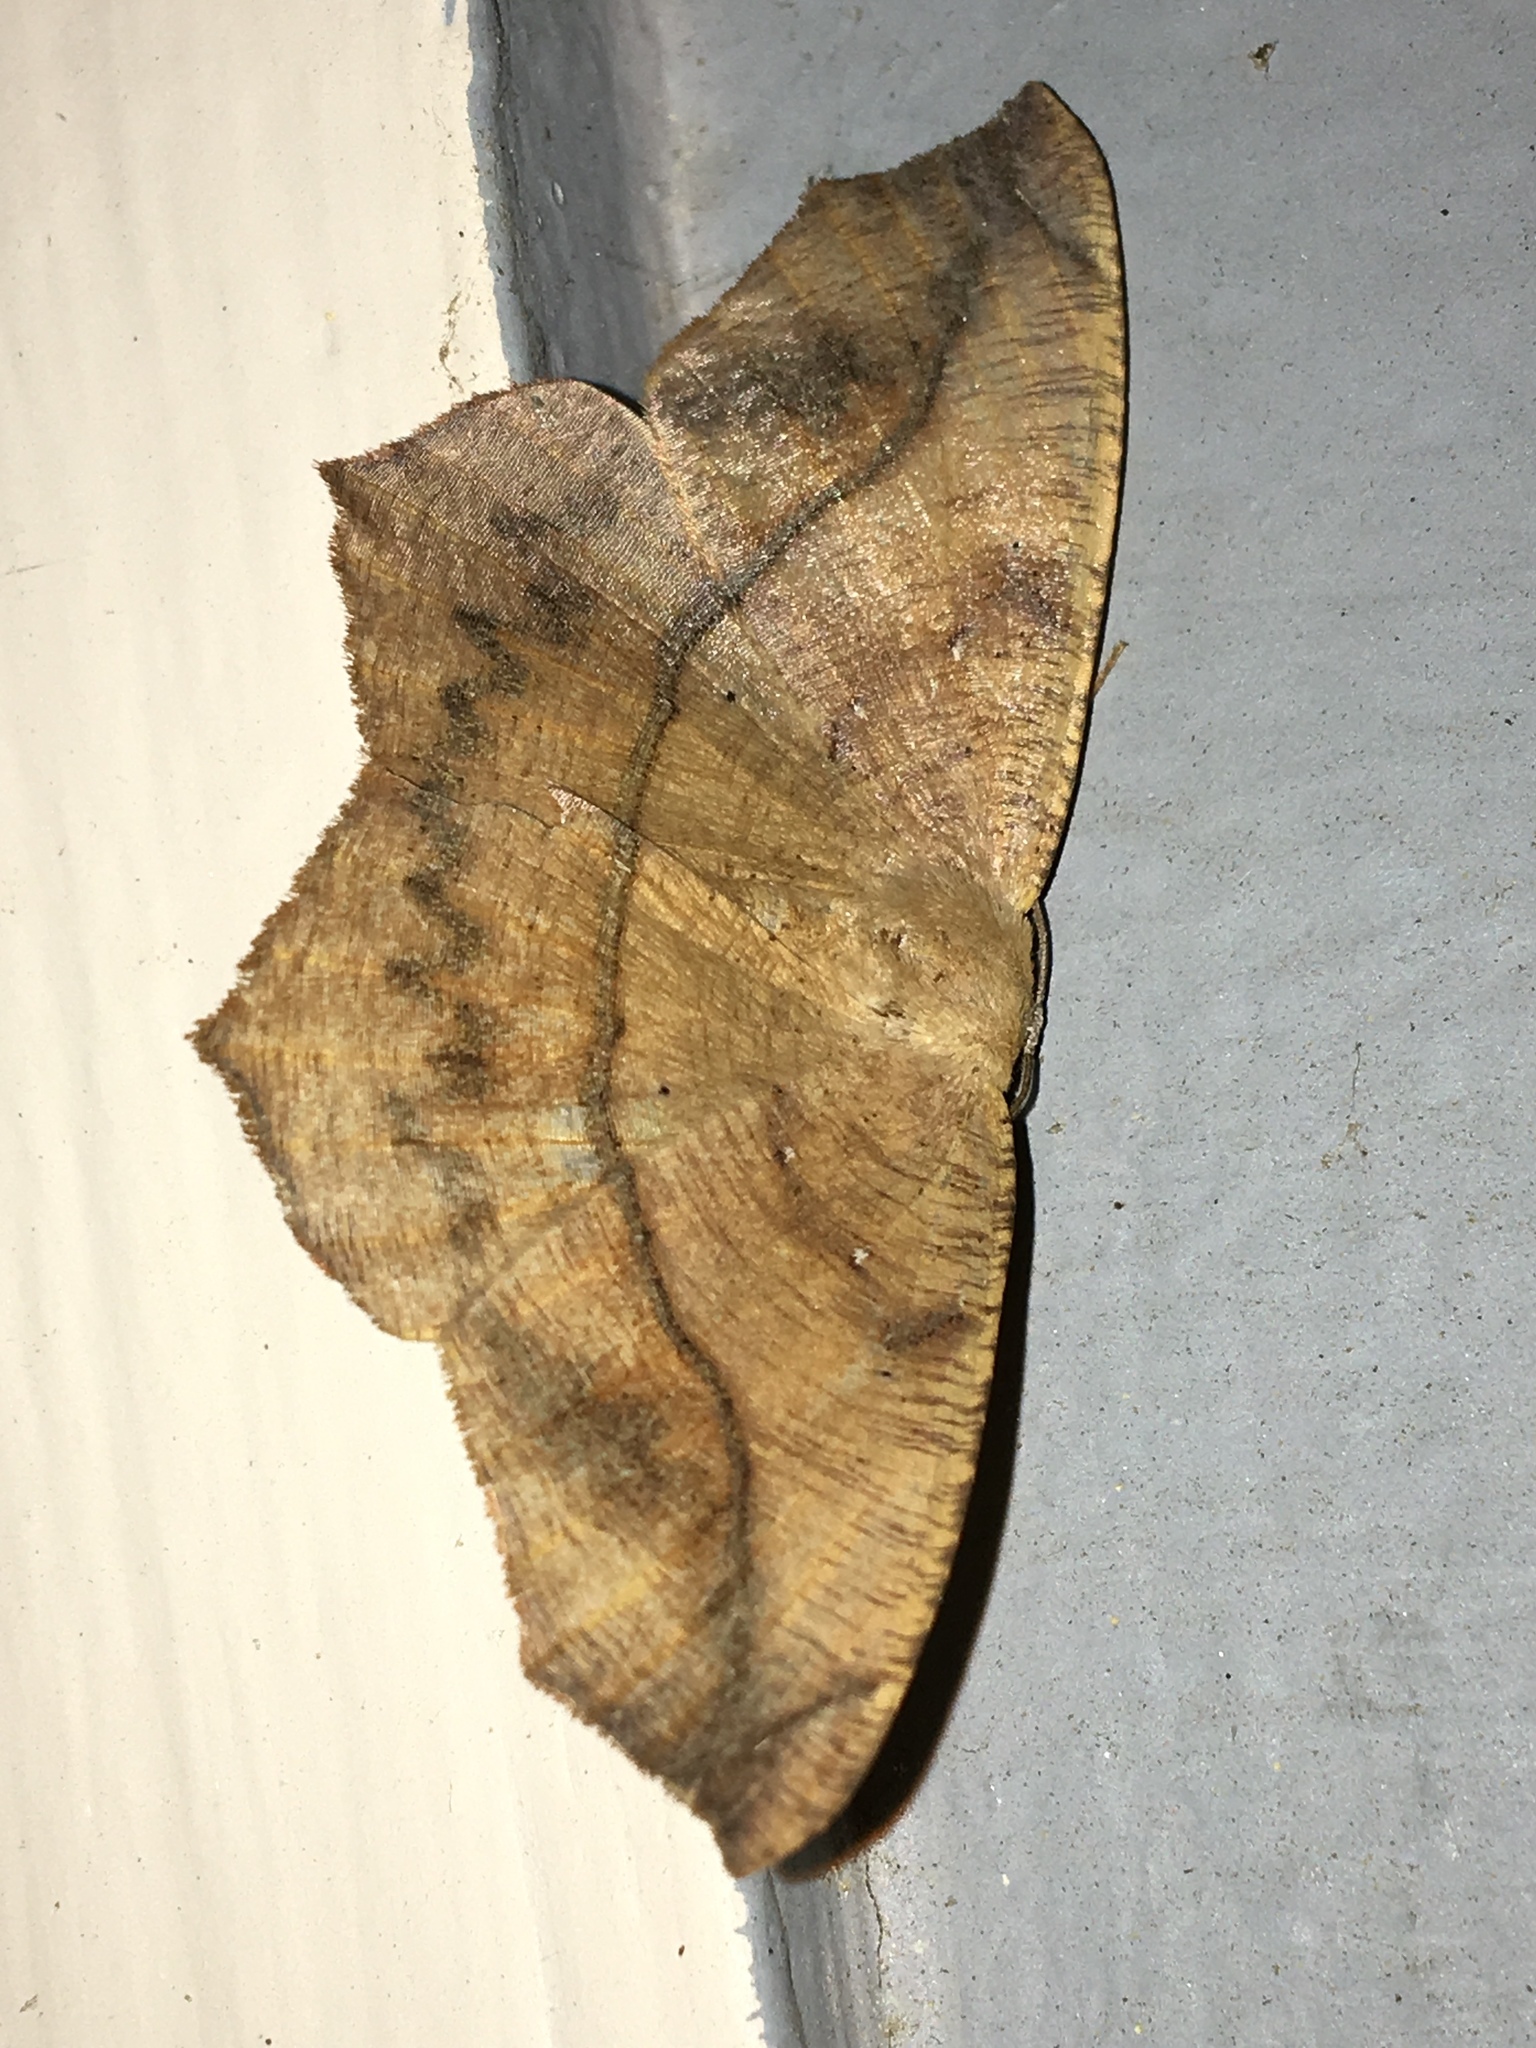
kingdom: Animalia
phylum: Arthropoda
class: Insecta
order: Lepidoptera
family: Geometridae
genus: Prochoerodes
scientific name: Prochoerodes lineola
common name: Large maple spanworm
